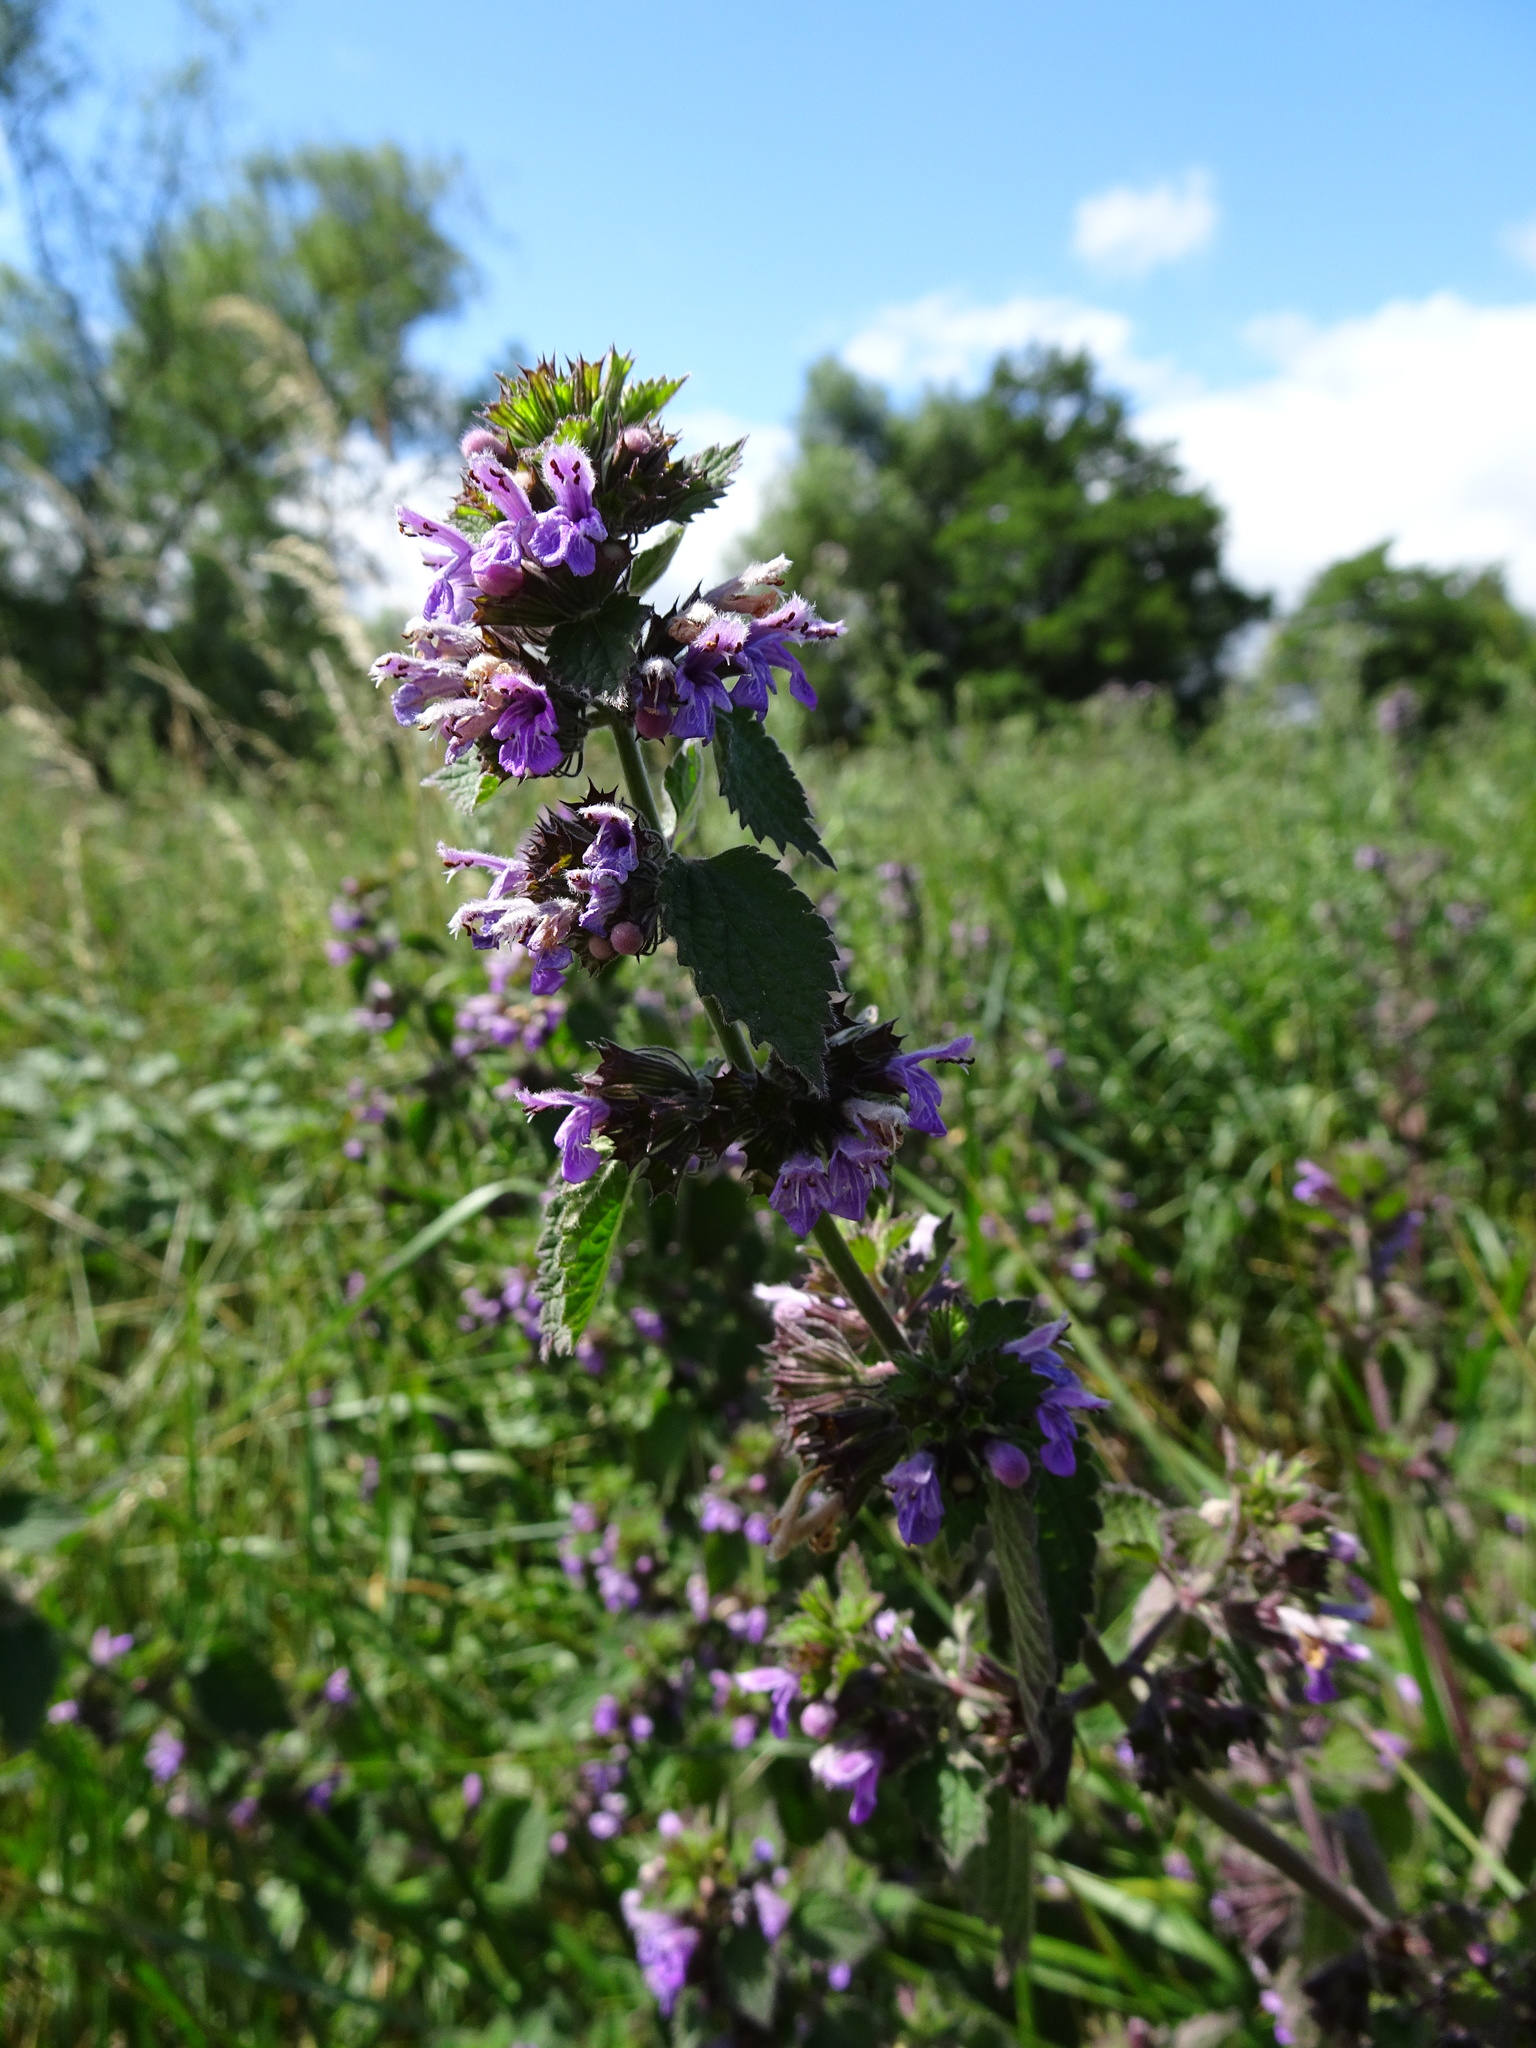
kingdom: Plantae
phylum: Tracheophyta
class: Magnoliopsida
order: Lamiales
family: Lamiaceae
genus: Ballota
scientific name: Ballota nigra
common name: Black horehound
